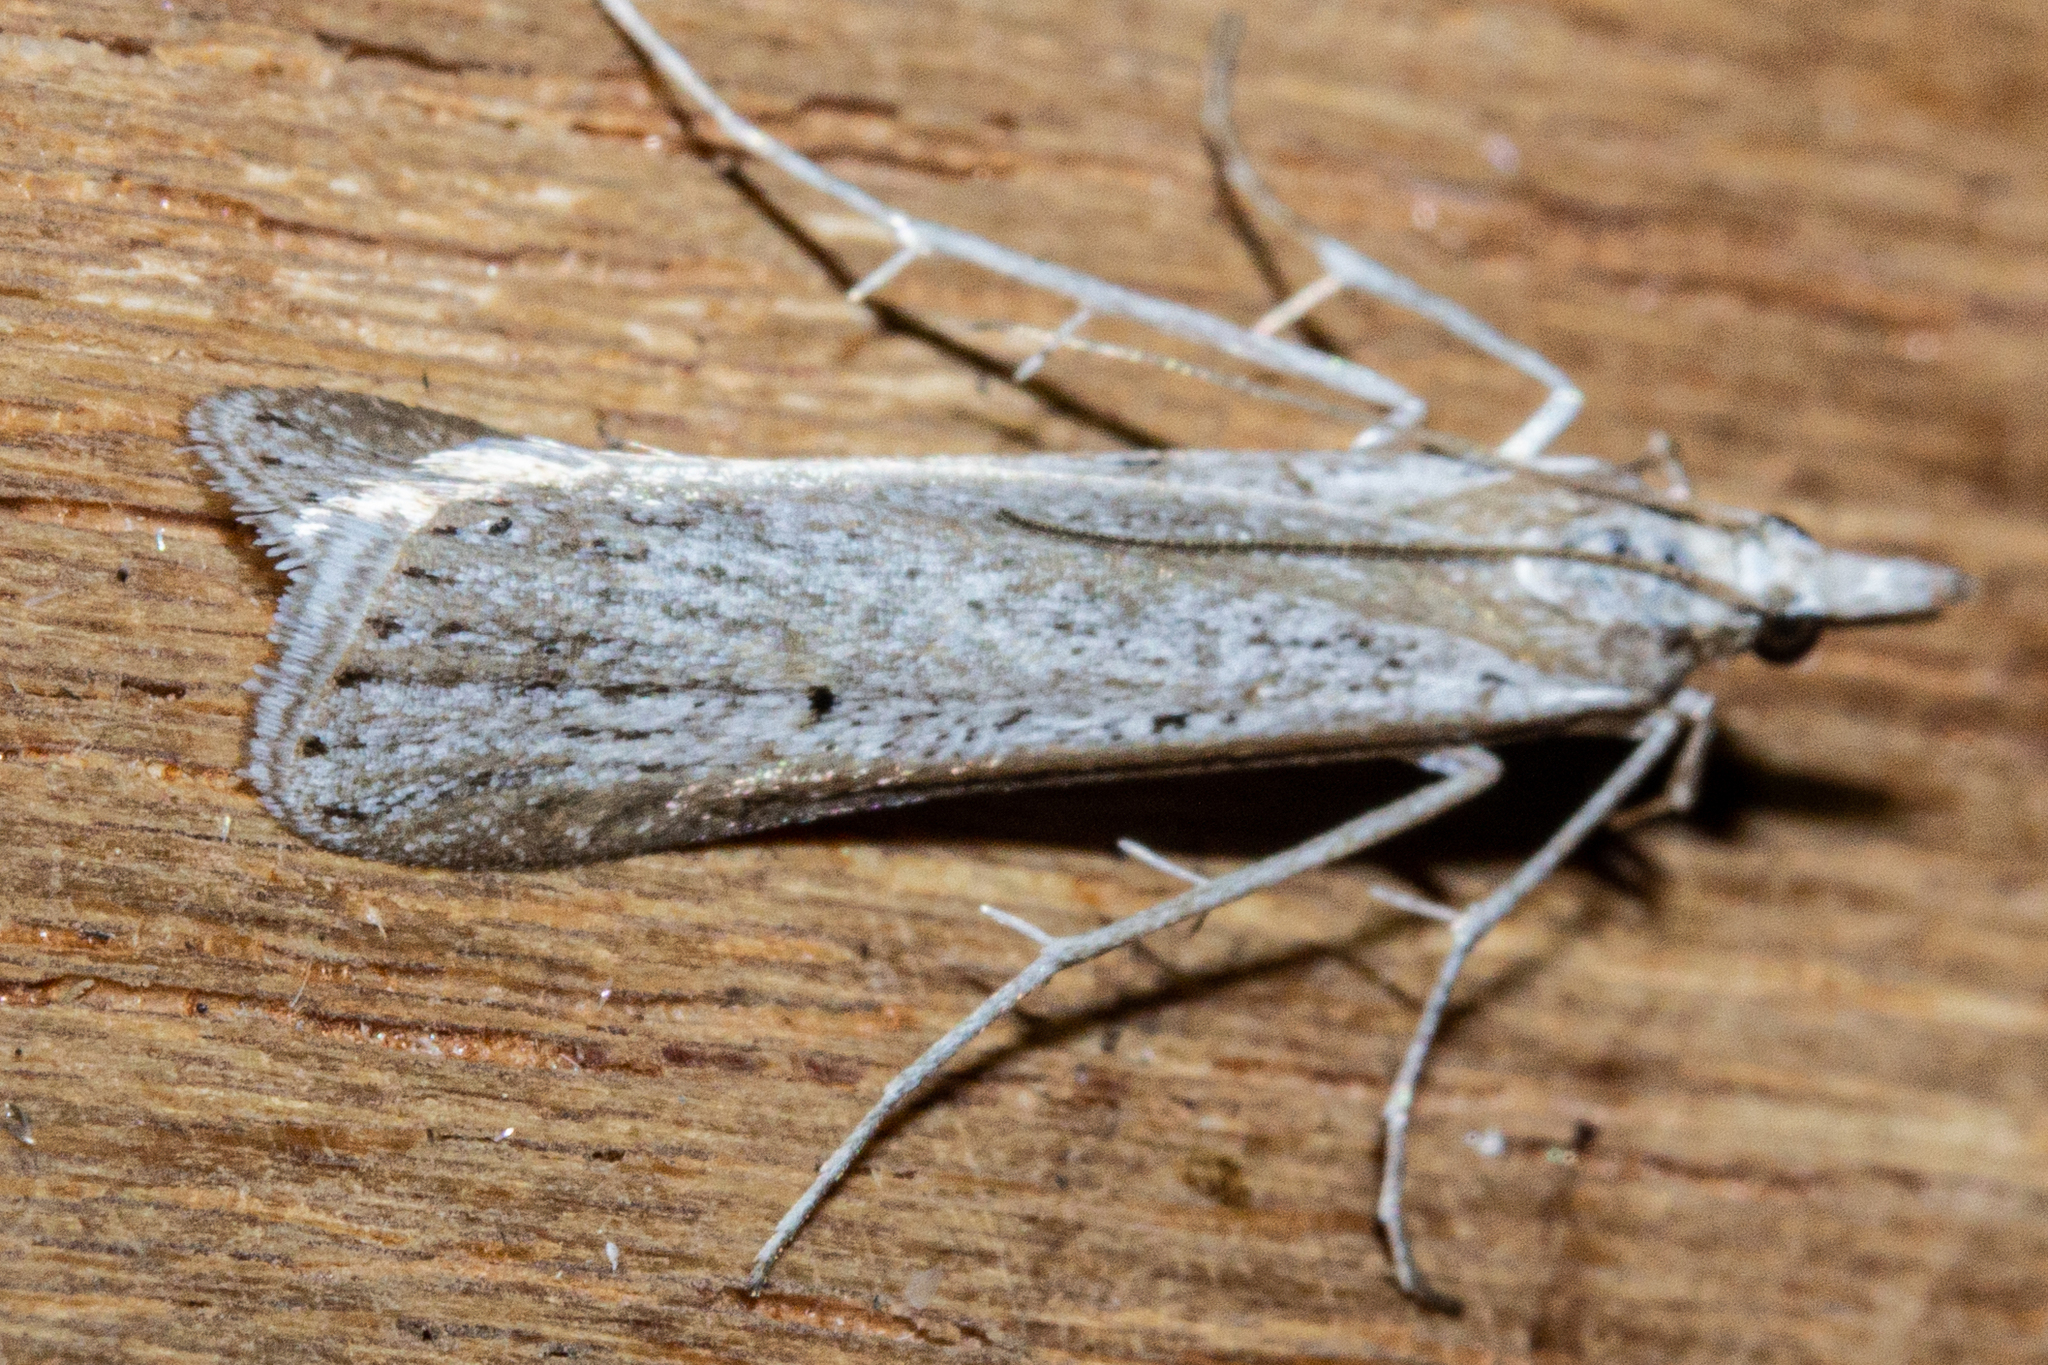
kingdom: Animalia
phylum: Arthropoda
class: Insecta
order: Lepidoptera
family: Crambidae
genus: Scoparia
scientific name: Scoparia niphospora
